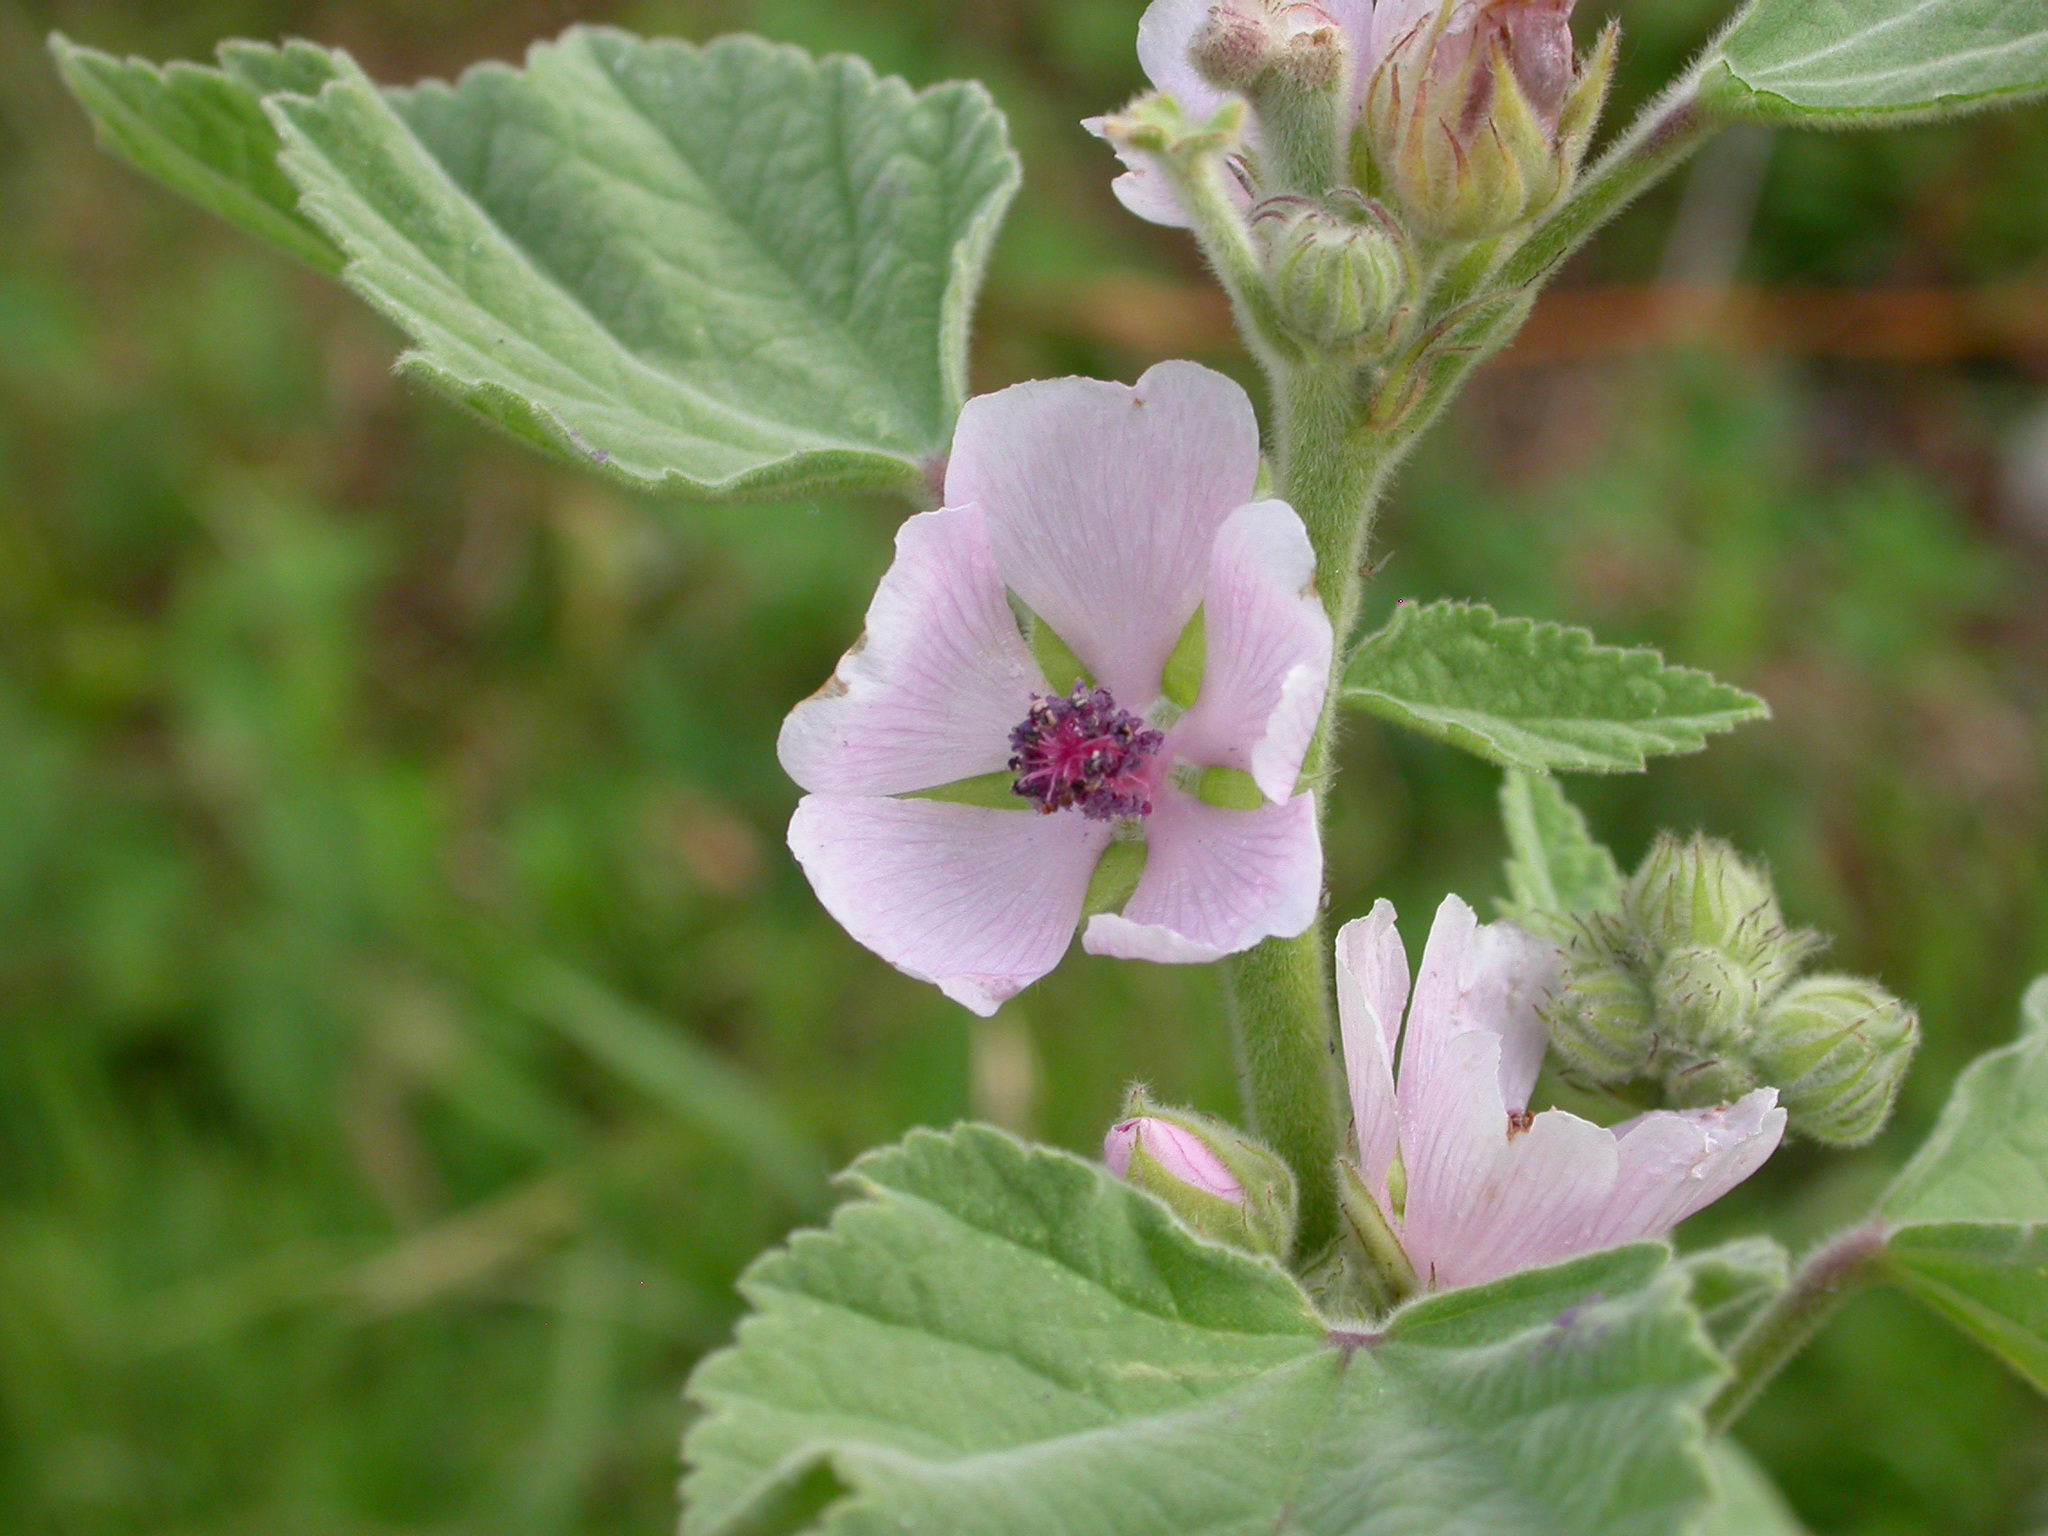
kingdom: Plantae
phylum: Tracheophyta
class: Magnoliopsida
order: Malvales
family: Malvaceae
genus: Althaea
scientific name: Althaea officinalis
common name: Marsh-mallow
